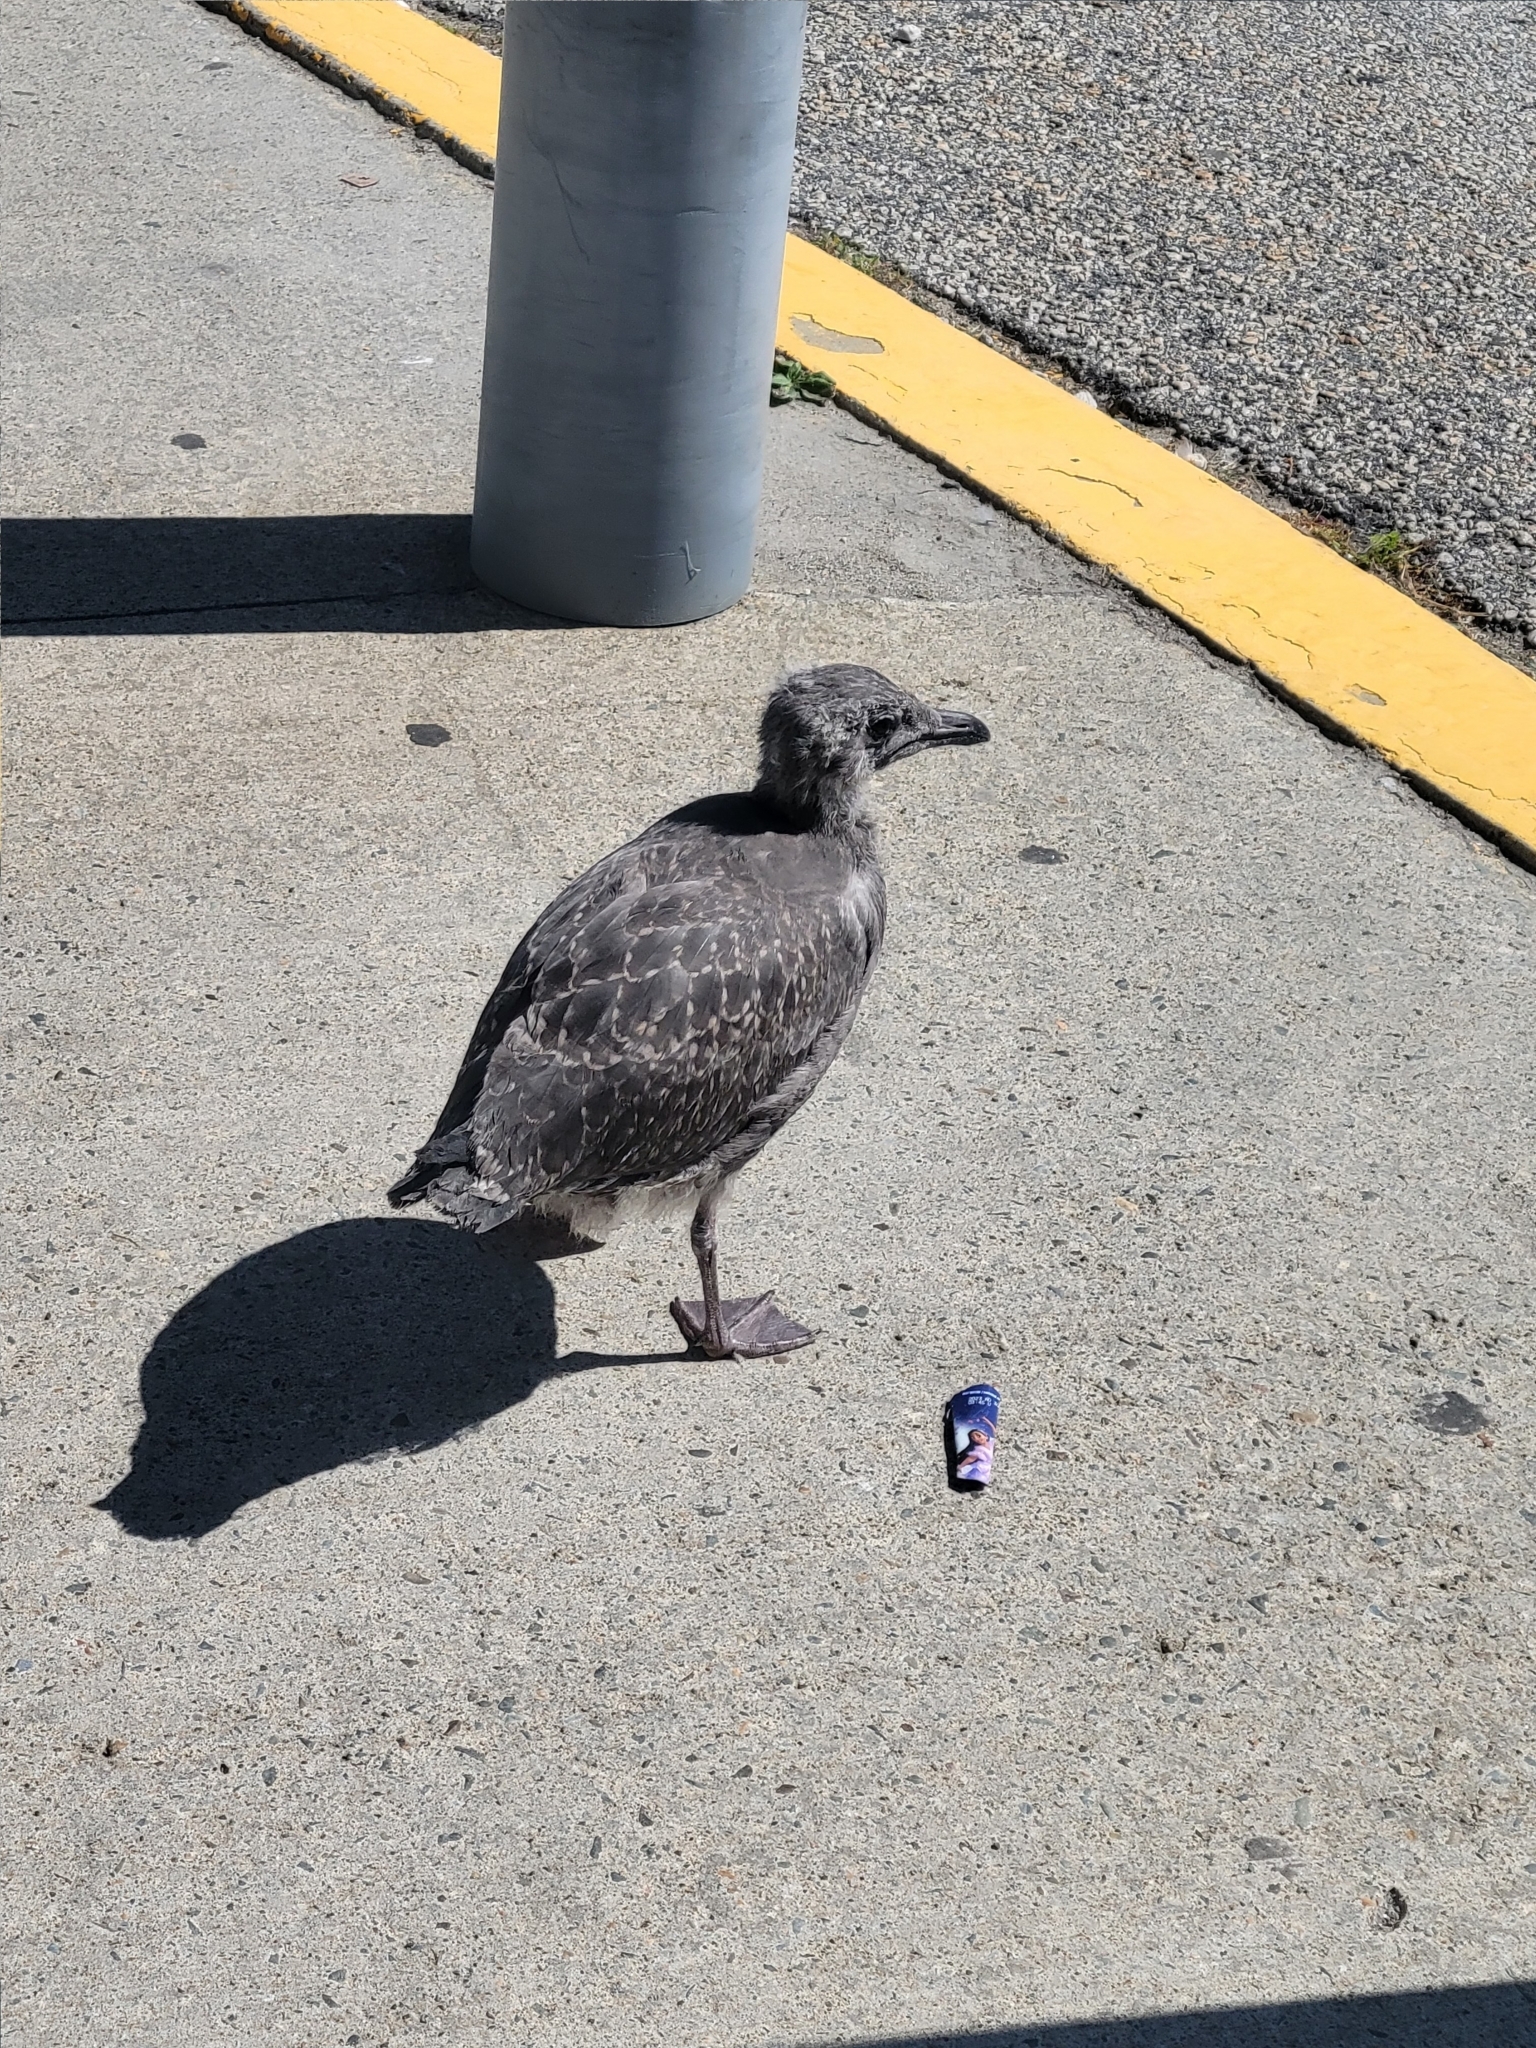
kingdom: Animalia
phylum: Chordata
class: Aves
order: Charadriiformes
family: Laridae
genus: Larus
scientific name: Larus argentatus
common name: Herring gull
